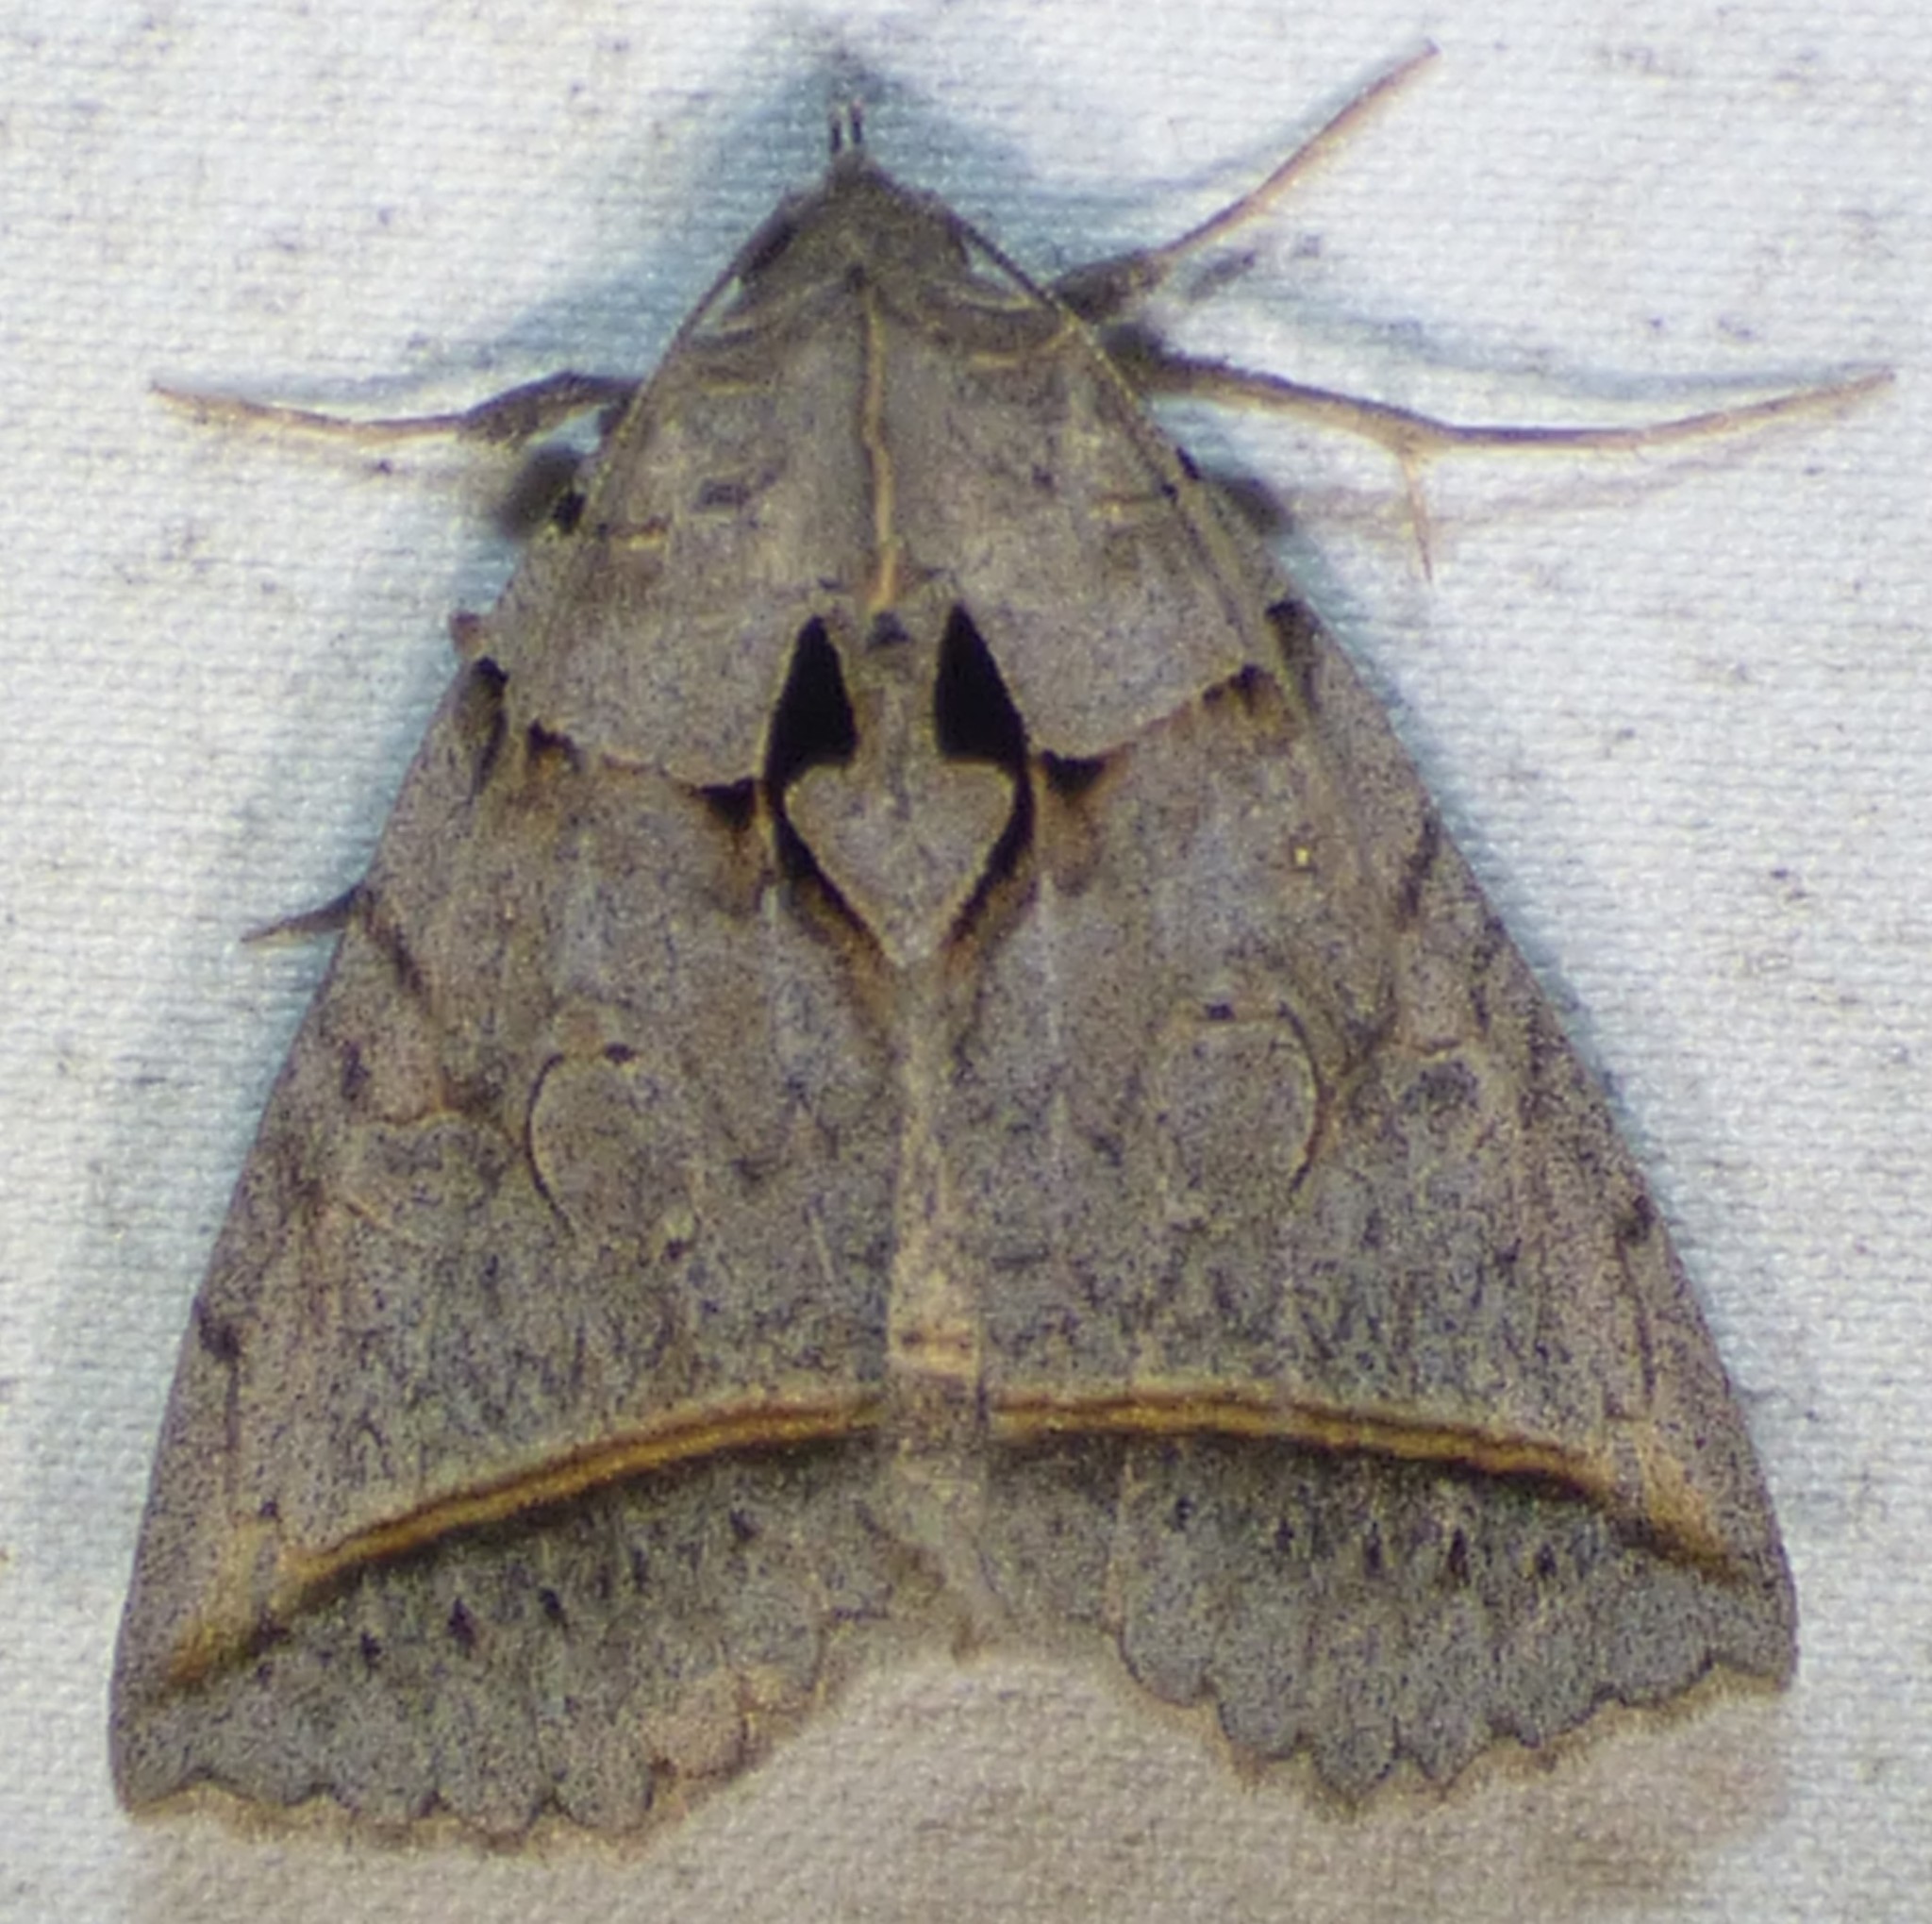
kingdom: Animalia
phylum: Arthropoda
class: Insecta
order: Lepidoptera
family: Erebidae
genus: Celiptera
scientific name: Celiptera frustulum
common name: Black bit moth
